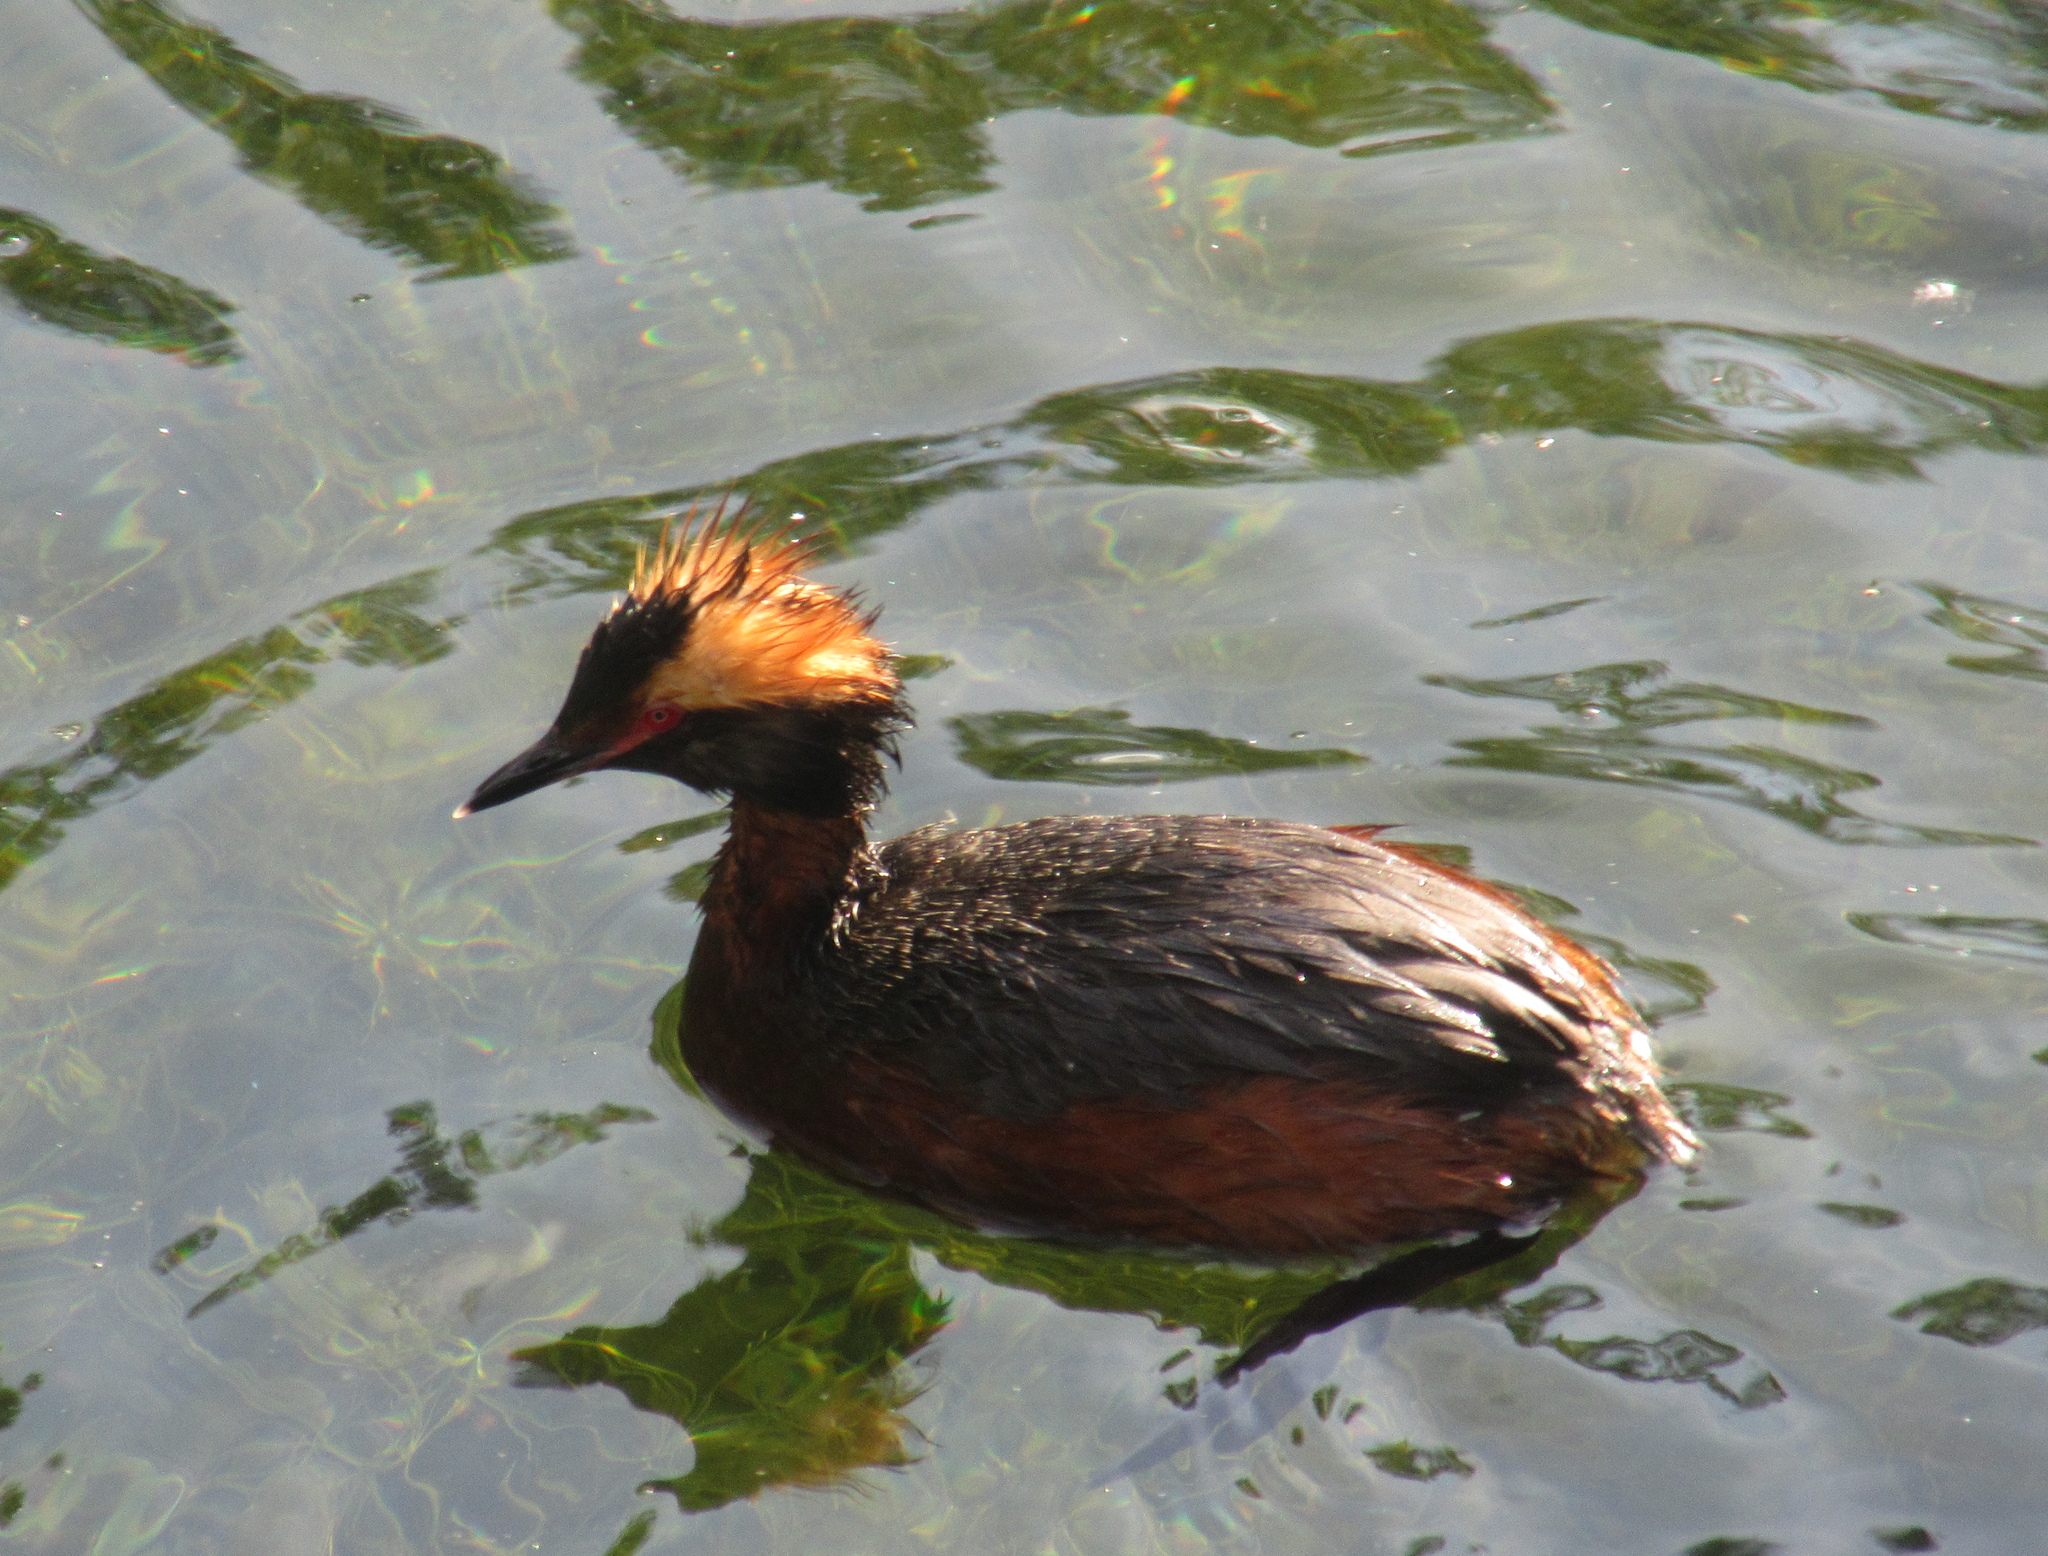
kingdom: Animalia
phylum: Chordata
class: Aves
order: Podicipediformes
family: Podicipedidae
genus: Podiceps
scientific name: Podiceps auritus
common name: Horned grebe
